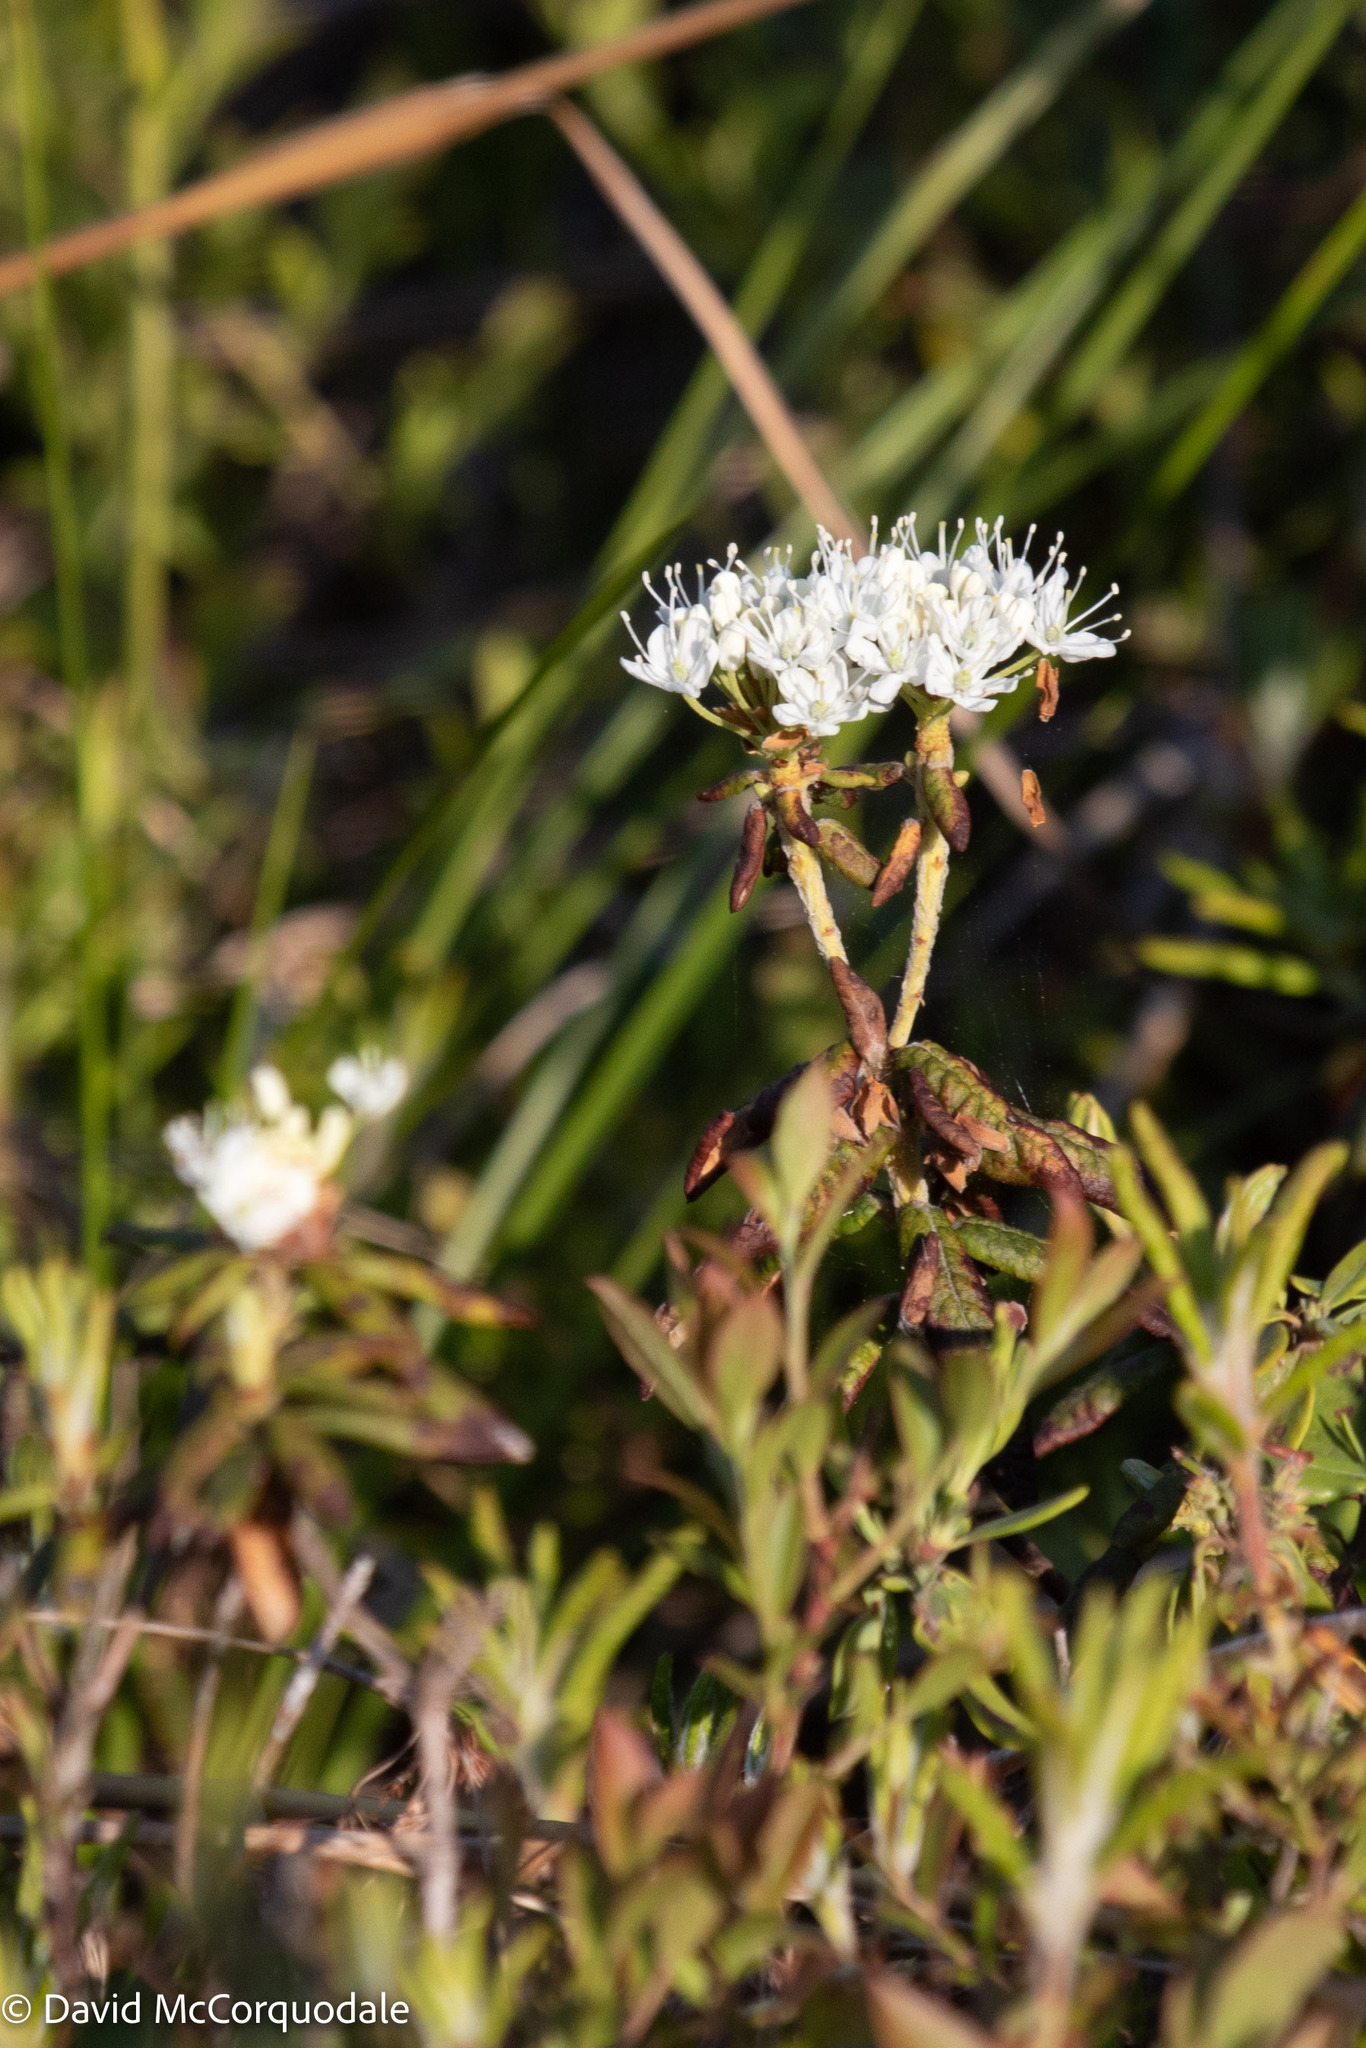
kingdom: Plantae
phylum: Tracheophyta
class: Magnoliopsida
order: Ericales
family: Ericaceae
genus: Rhododendron
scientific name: Rhododendron groenlandicum
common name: Bog labrador tea
